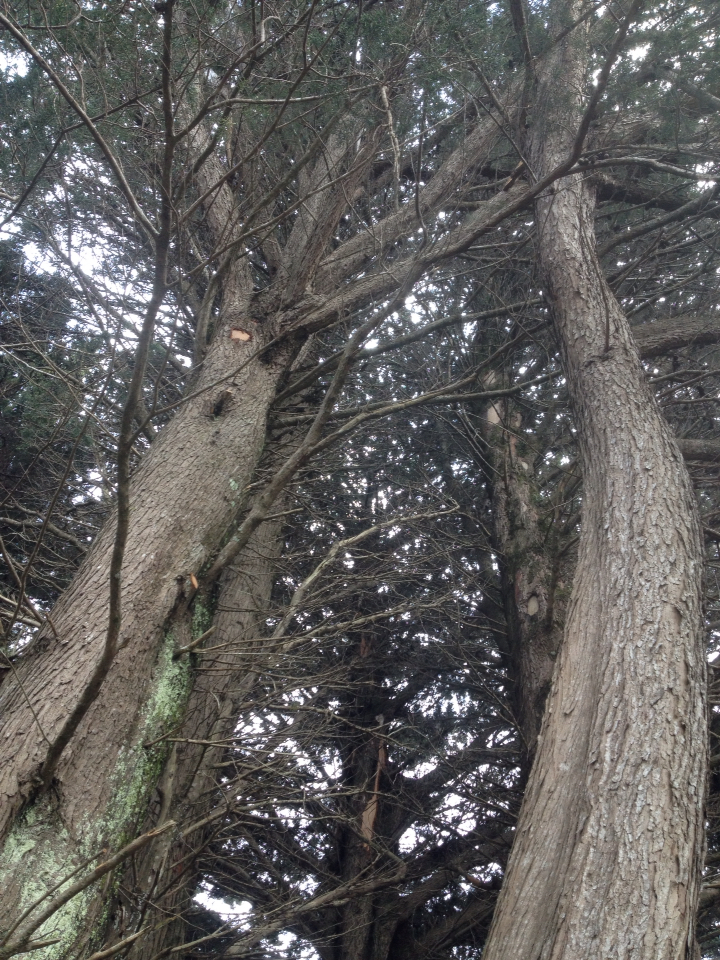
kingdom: Animalia
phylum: Chordata
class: Aves
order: Psittaciformes
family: Psittacidae
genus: Nestor
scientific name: Nestor meridionalis
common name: New zealand kaka
